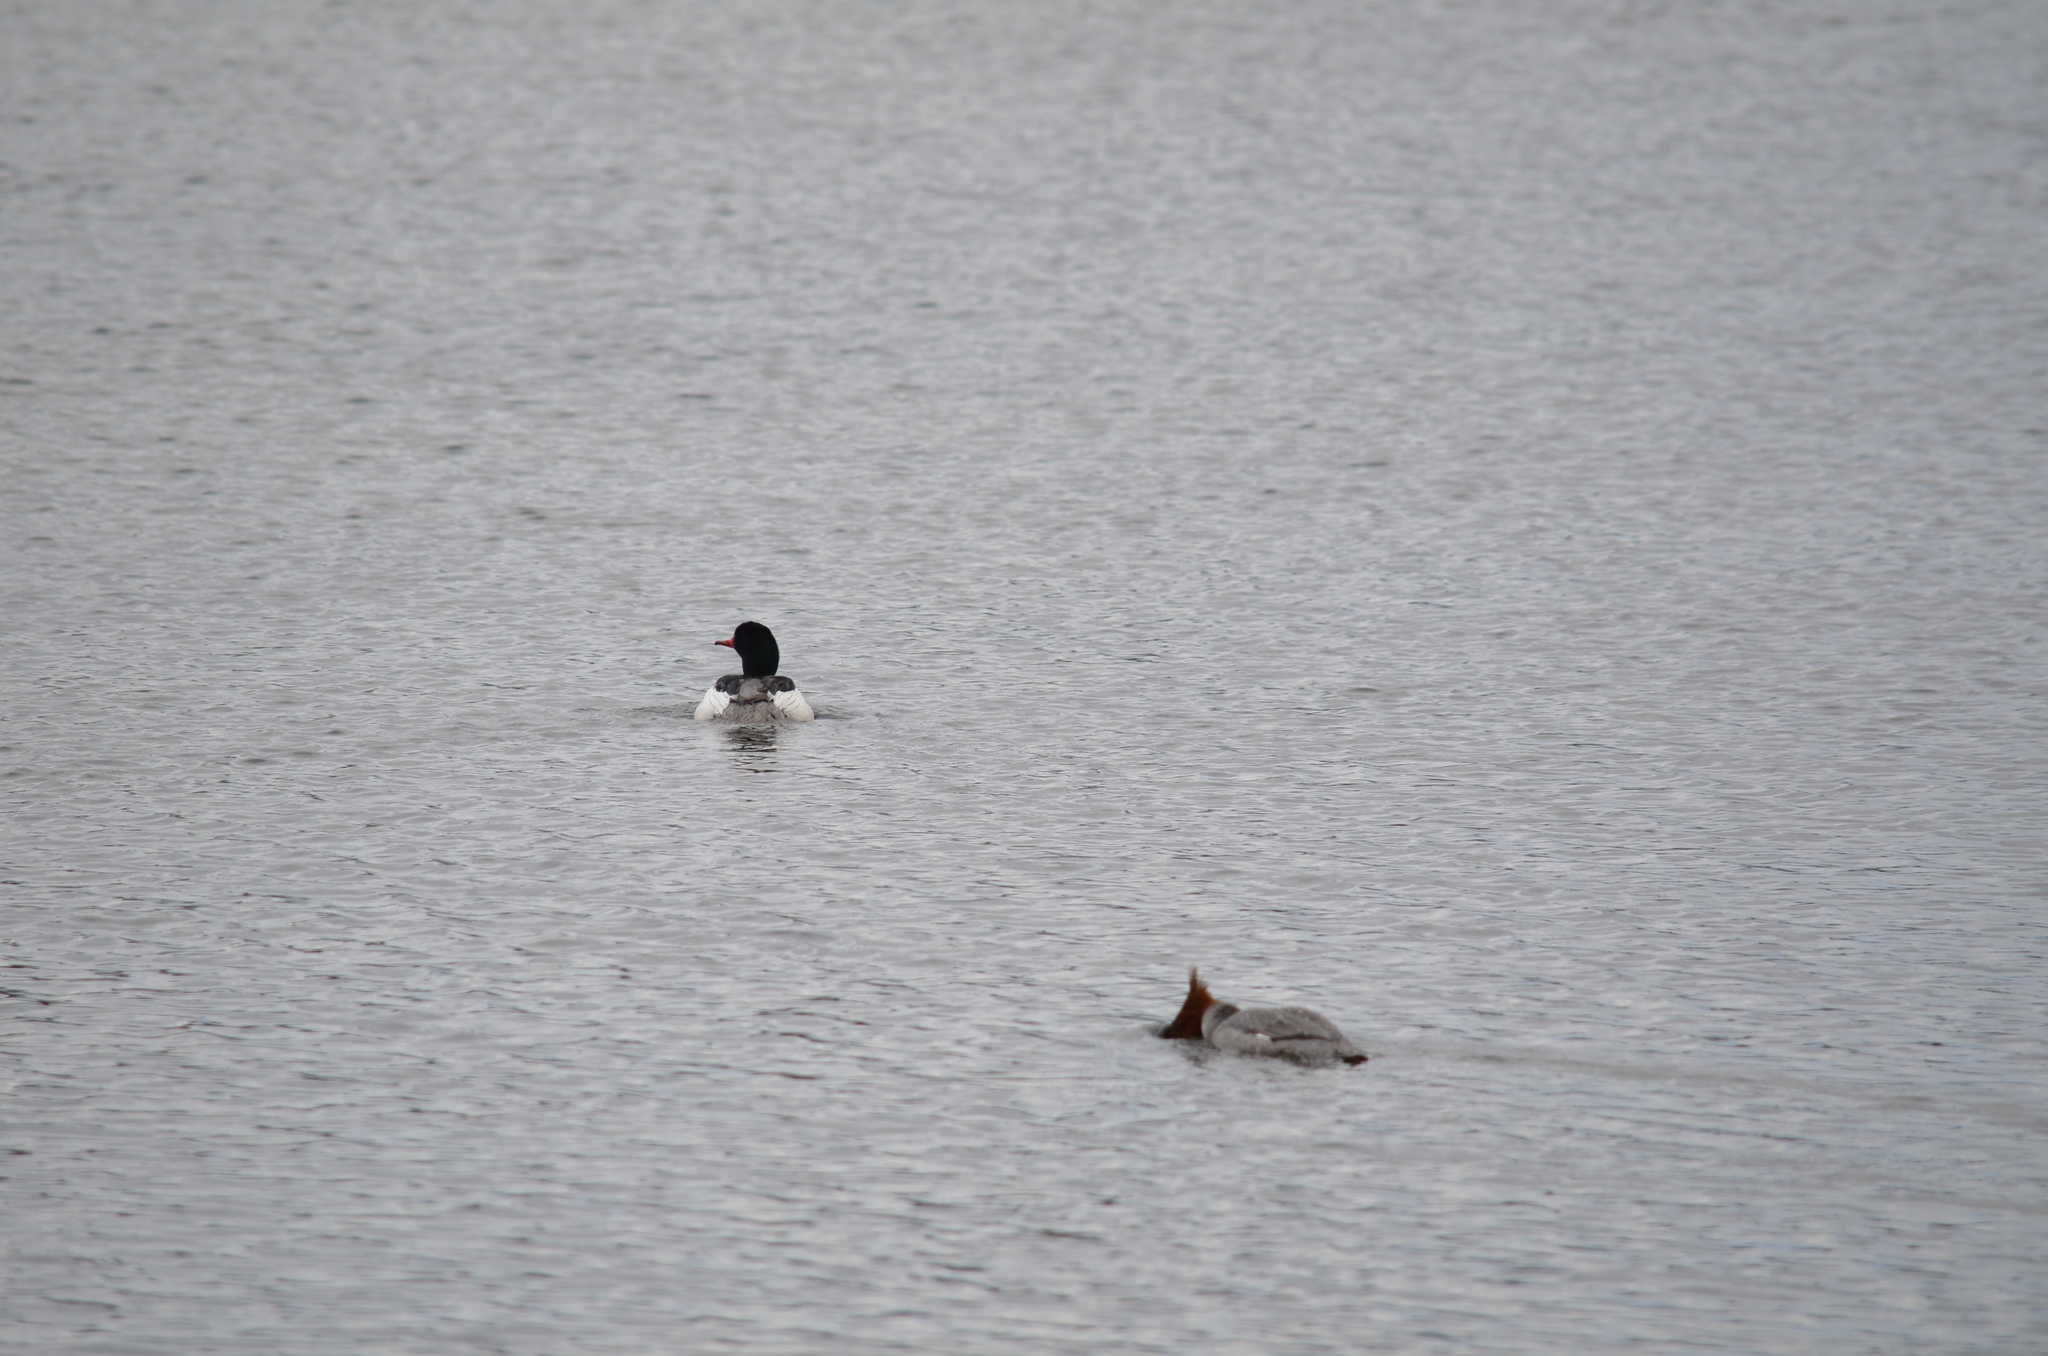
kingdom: Animalia
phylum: Chordata
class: Aves
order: Anseriformes
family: Anatidae
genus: Mergus
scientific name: Mergus merganser
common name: Common merganser
